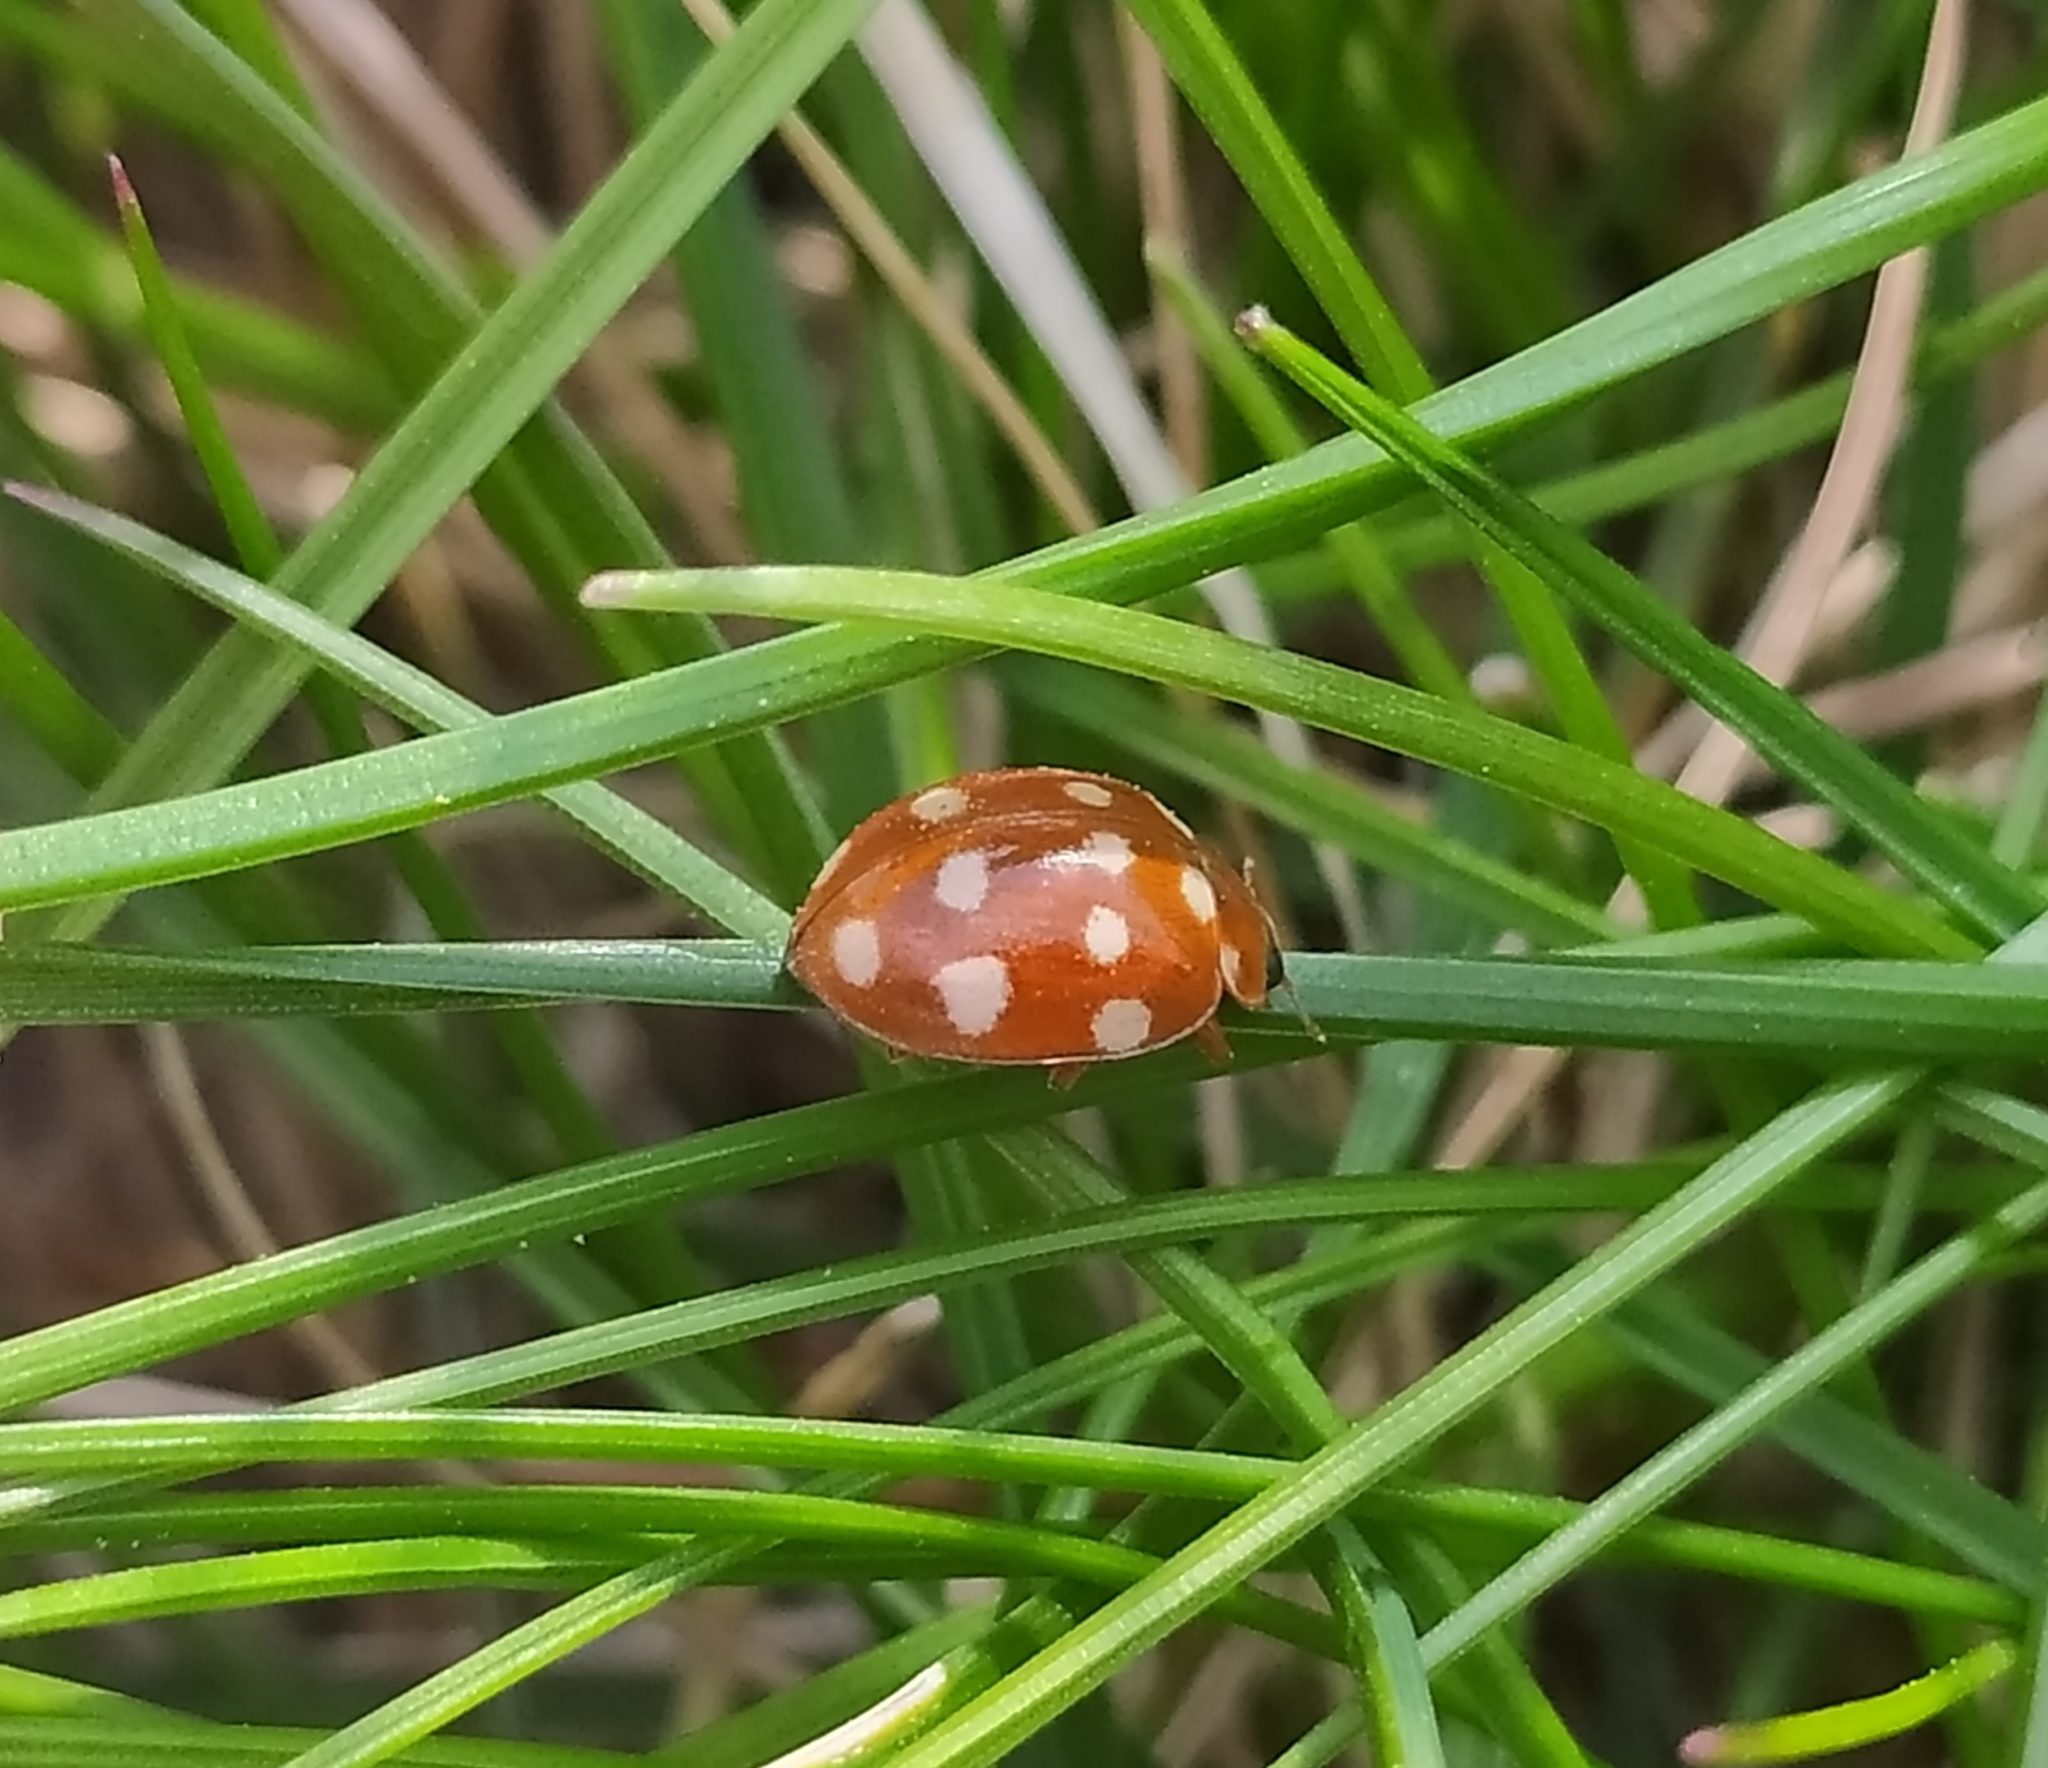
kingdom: Animalia
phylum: Arthropoda
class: Insecta
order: Coleoptera
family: Coccinellidae
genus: Calvia
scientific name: Calvia quatuordecimguttata
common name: Cream-spot ladybird
